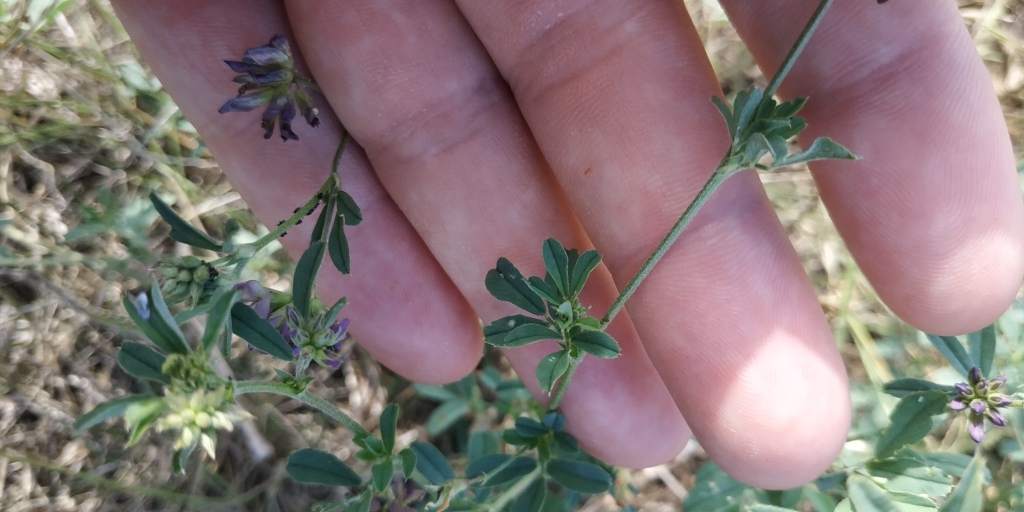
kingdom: Plantae
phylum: Tracheophyta
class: Magnoliopsida
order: Fabales
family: Fabaceae
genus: Medicago
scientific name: Medicago varia
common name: Sand lucerne
